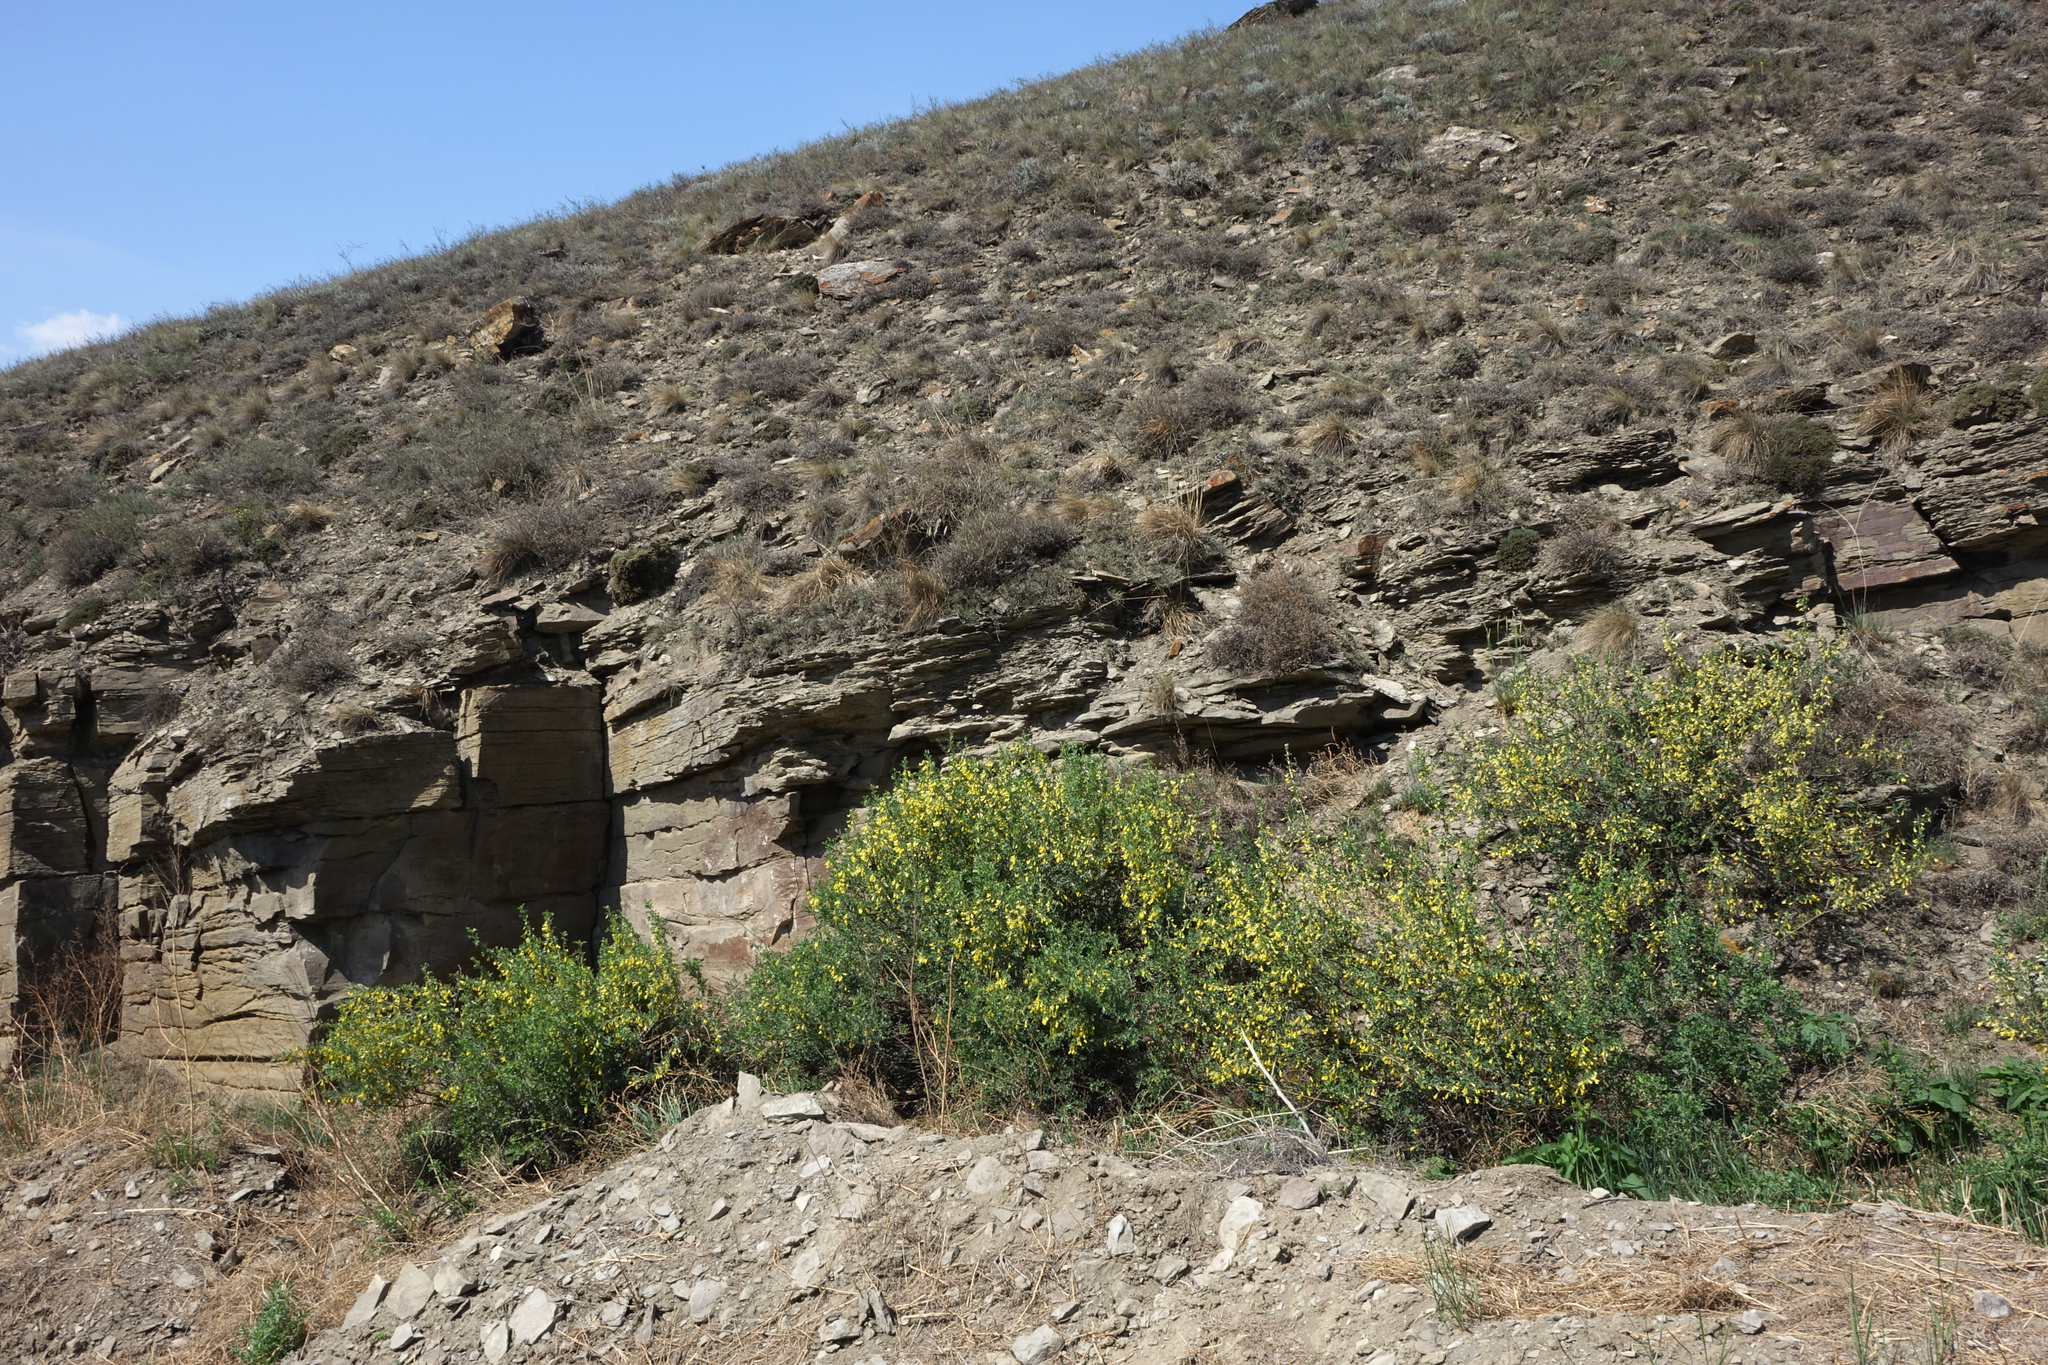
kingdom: Plantae
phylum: Tracheophyta
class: Magnoliopsida
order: Fabales
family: Fabaceae
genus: Caragana
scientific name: Caragana bungei
